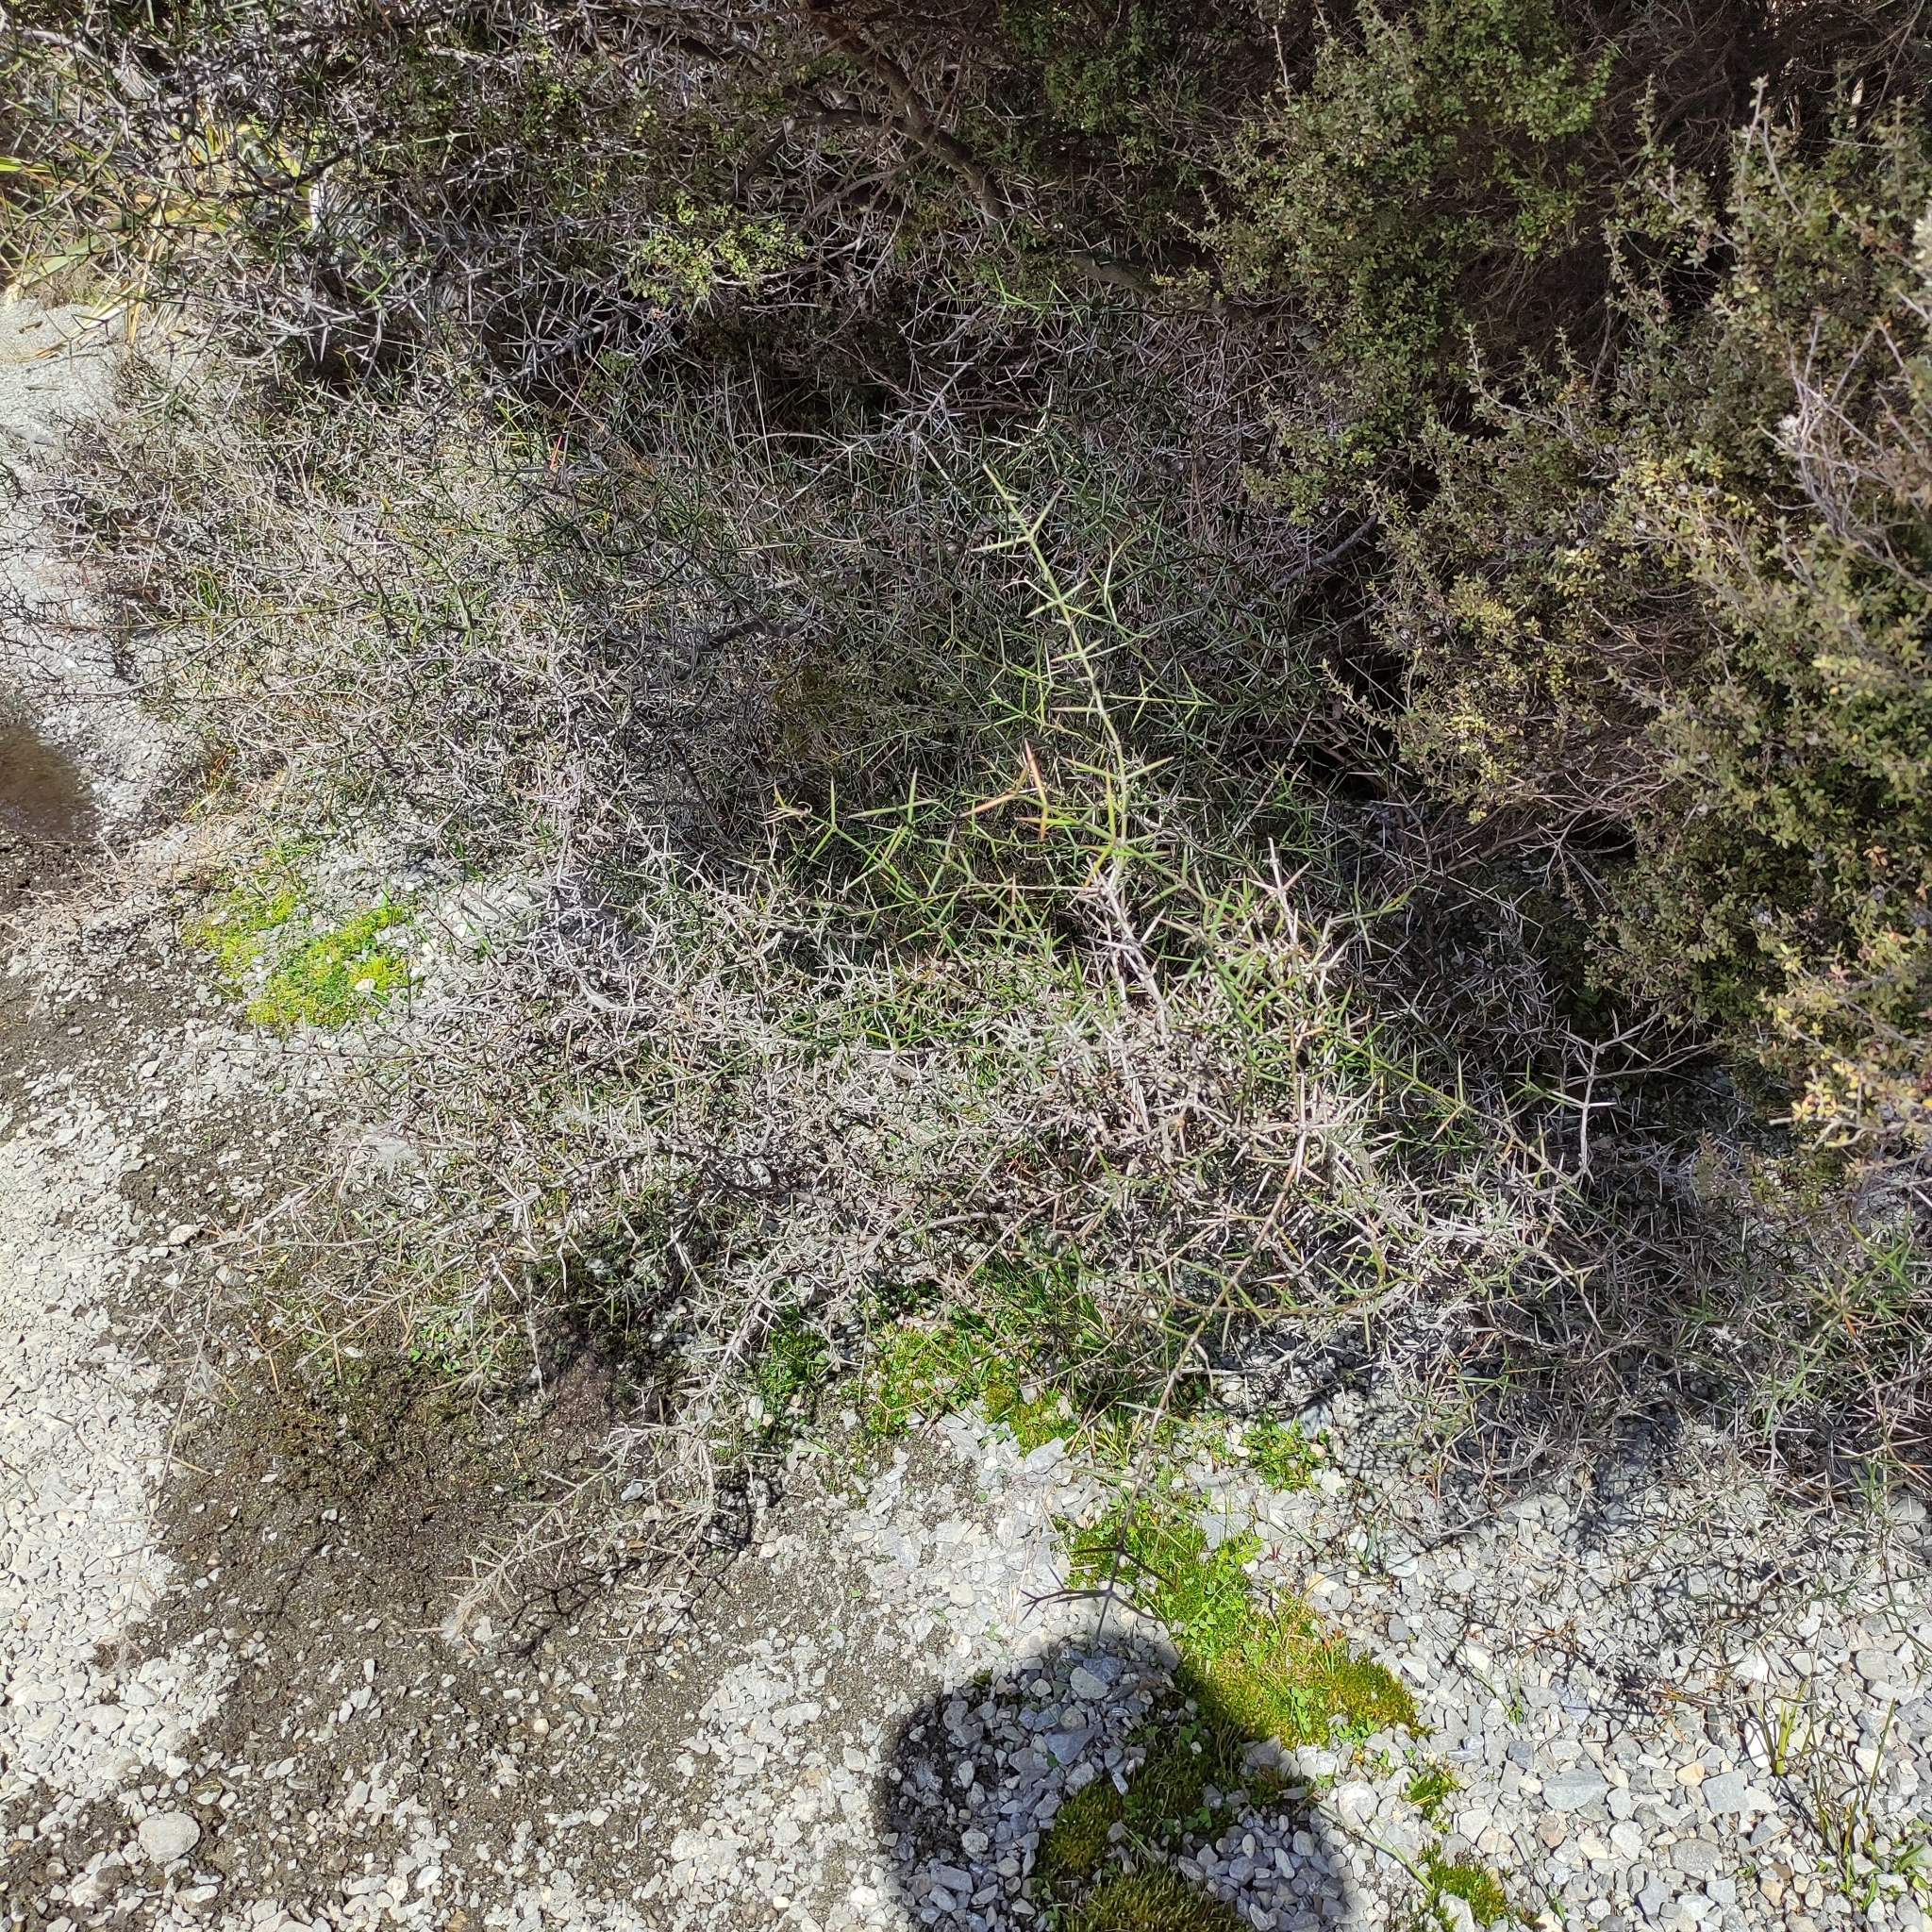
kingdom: Plantae
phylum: Tracheophyta
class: Magnoliopsida
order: Rosales
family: Rhamnaceae
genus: Discaria
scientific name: Discaria toumatou
